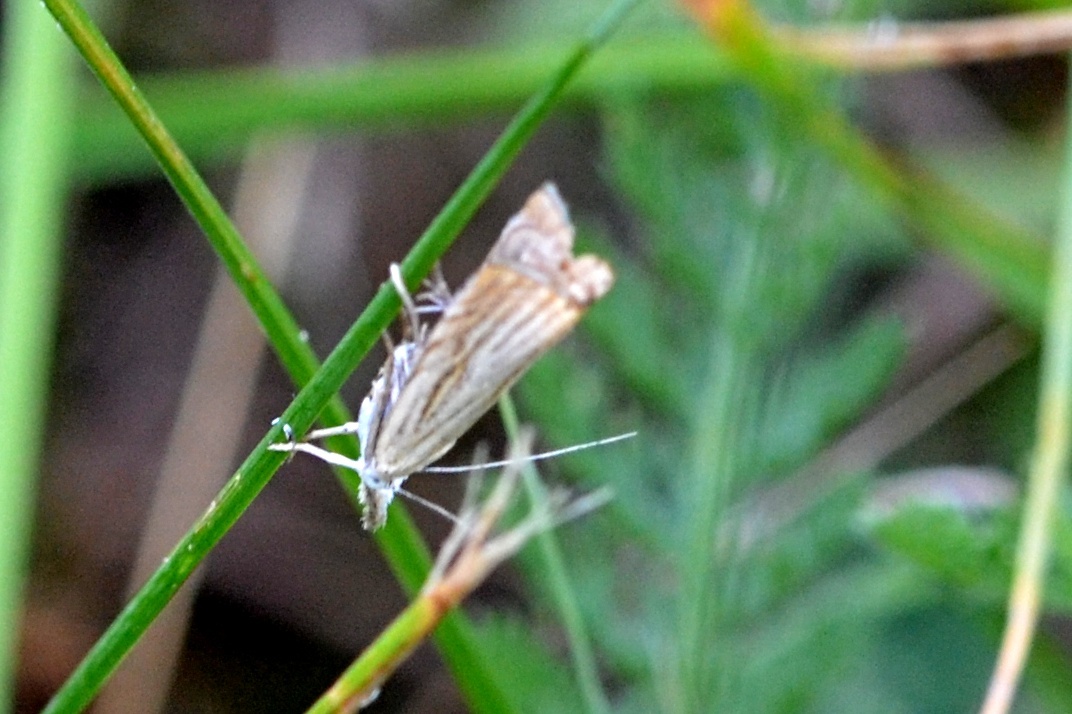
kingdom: Animalia
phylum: Arthropoda
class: Insecta
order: Lepidoptera
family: Crambidae
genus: Chrysoteuchia
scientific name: Chrysoteuchia culmella
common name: Garden grass-veneer
